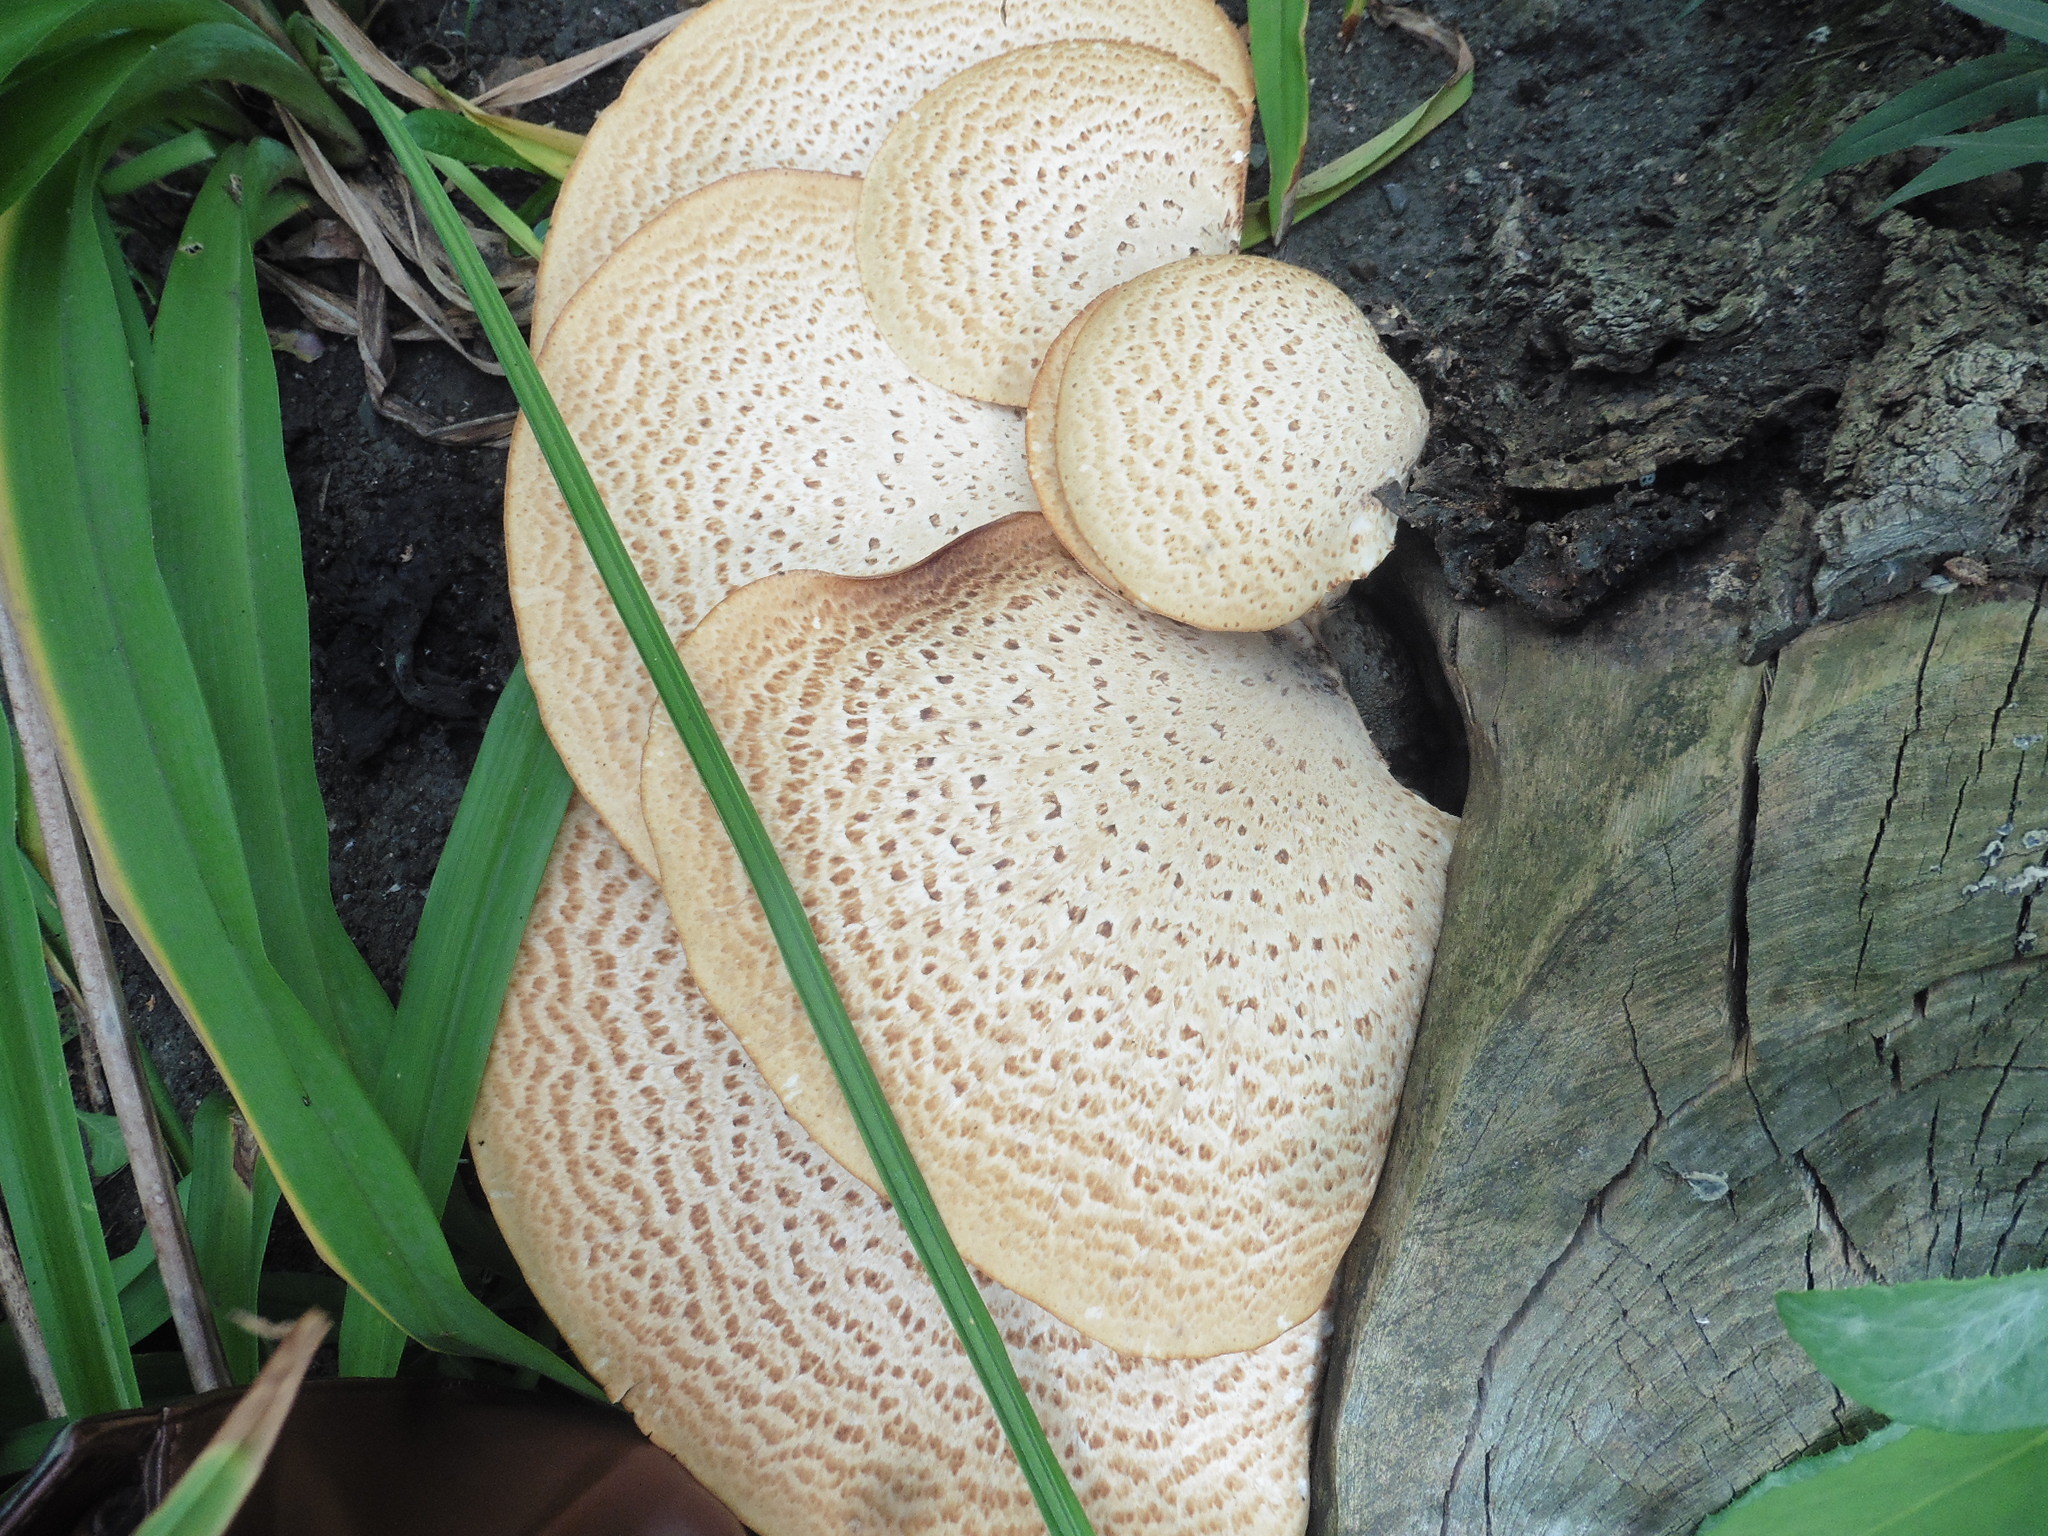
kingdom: Fungi
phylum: Basidiomycota
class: Agaricomycetes
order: Polyporales
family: Polyporaceae
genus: Cerioporus
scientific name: Cerioporus squamosus
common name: Dryad's saddle
